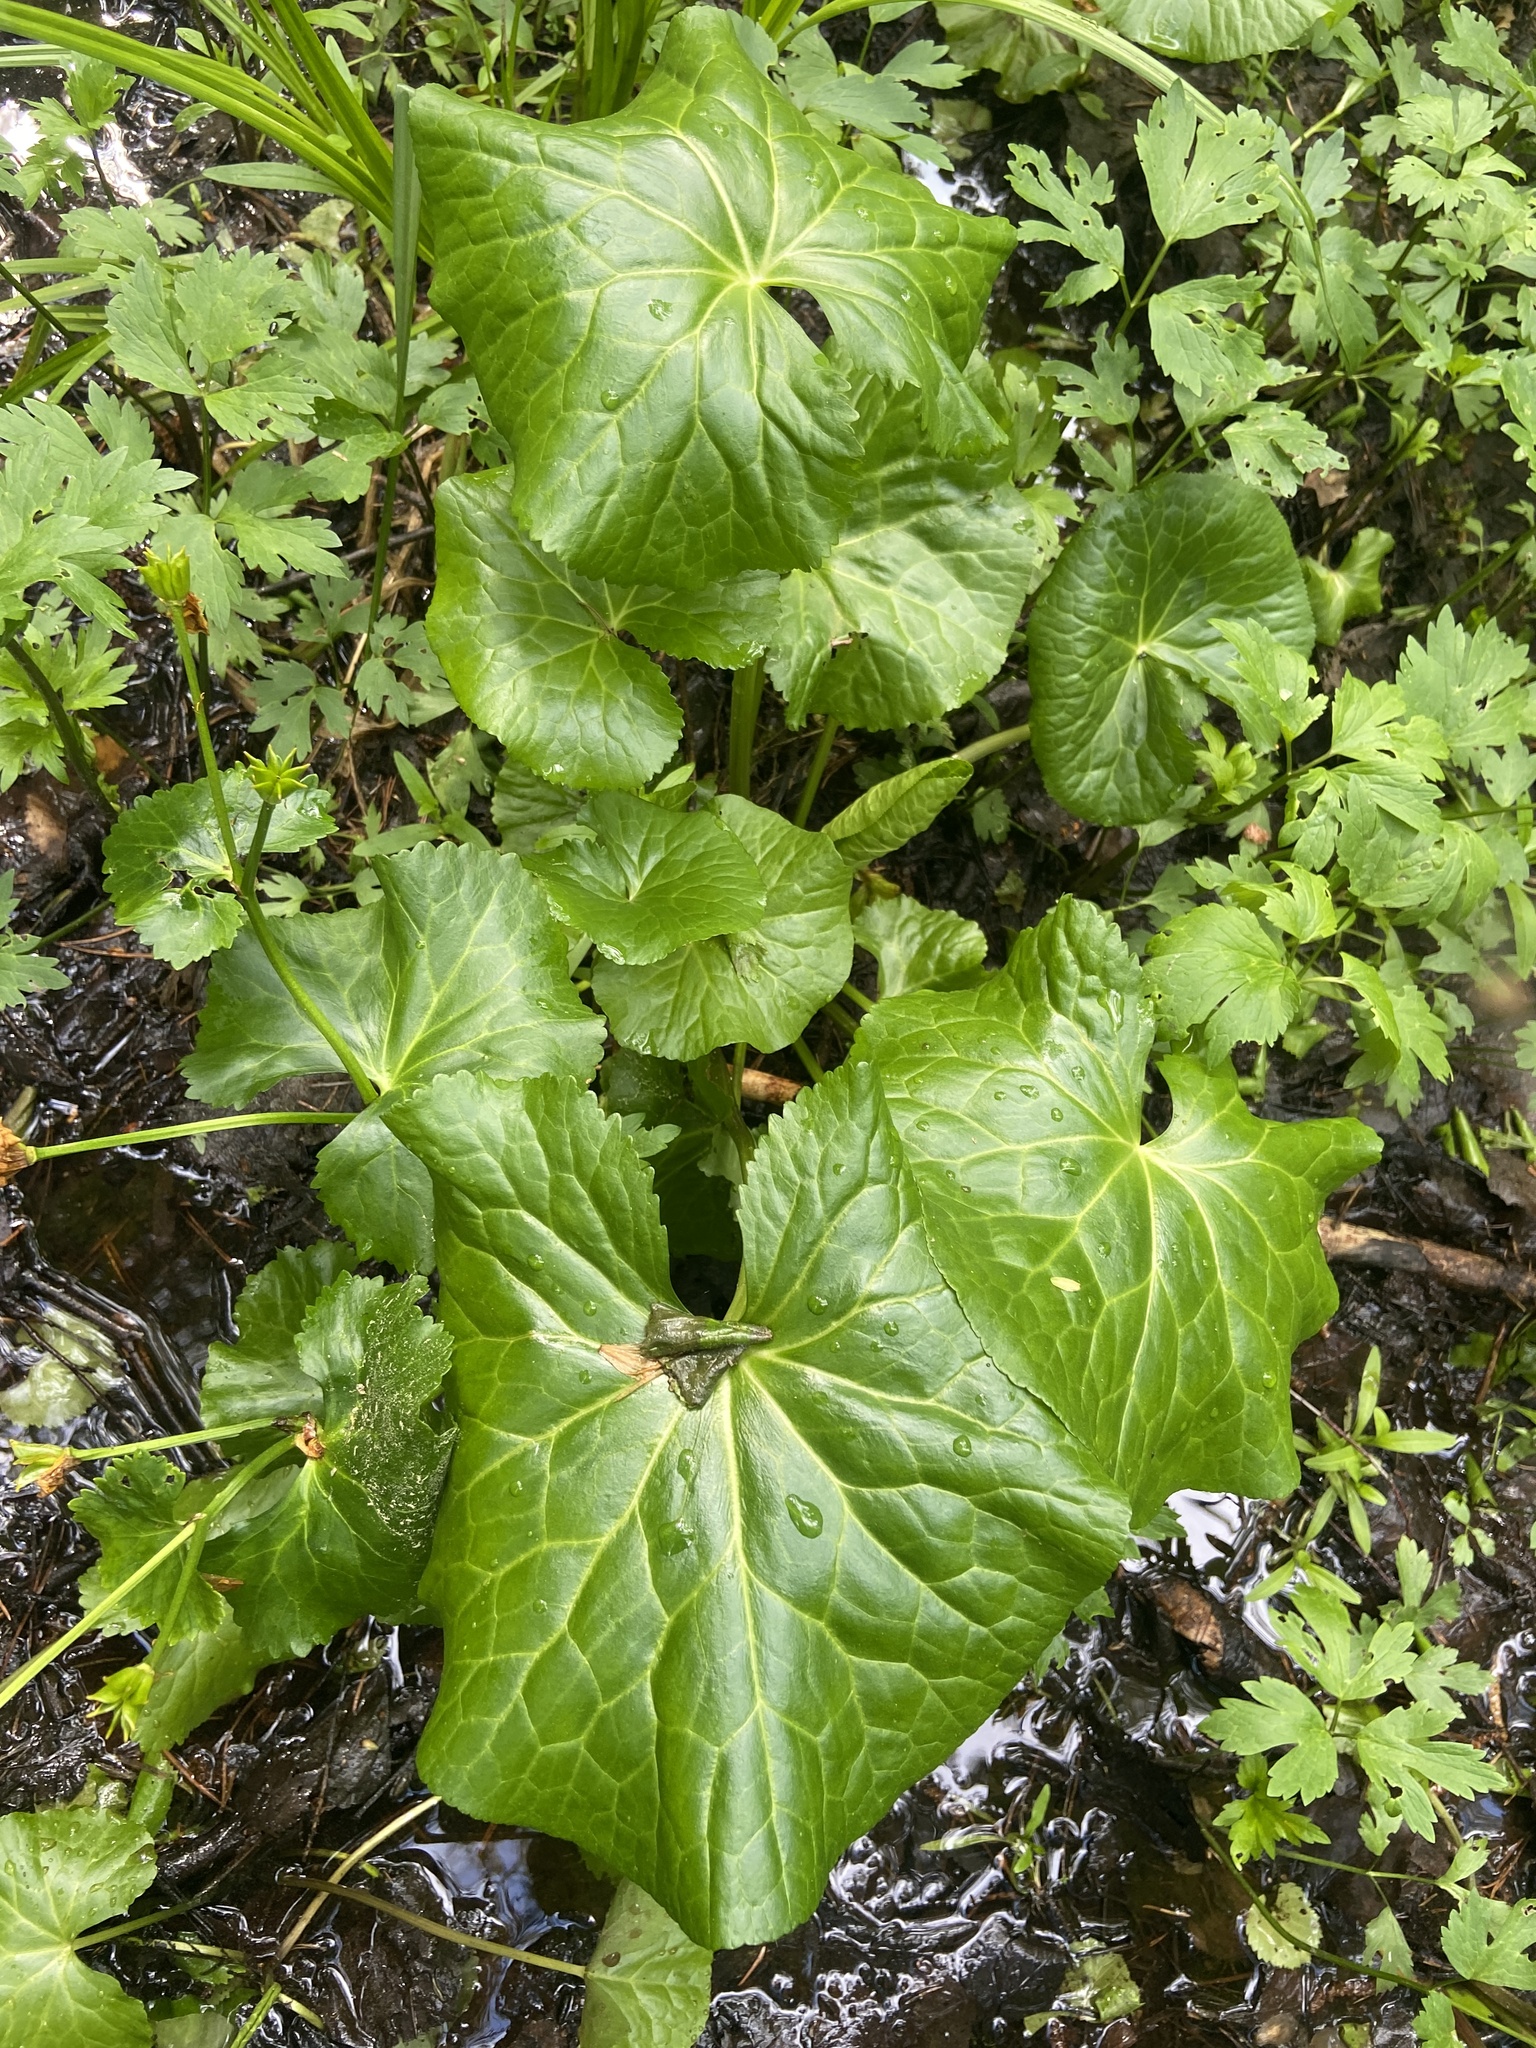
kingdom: Plantae
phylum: Tracheophyta
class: Magnoliopsida
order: Ranunculales
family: Ranunculaceae
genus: Caltha
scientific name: Caltha palustris
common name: Marsh marigold
